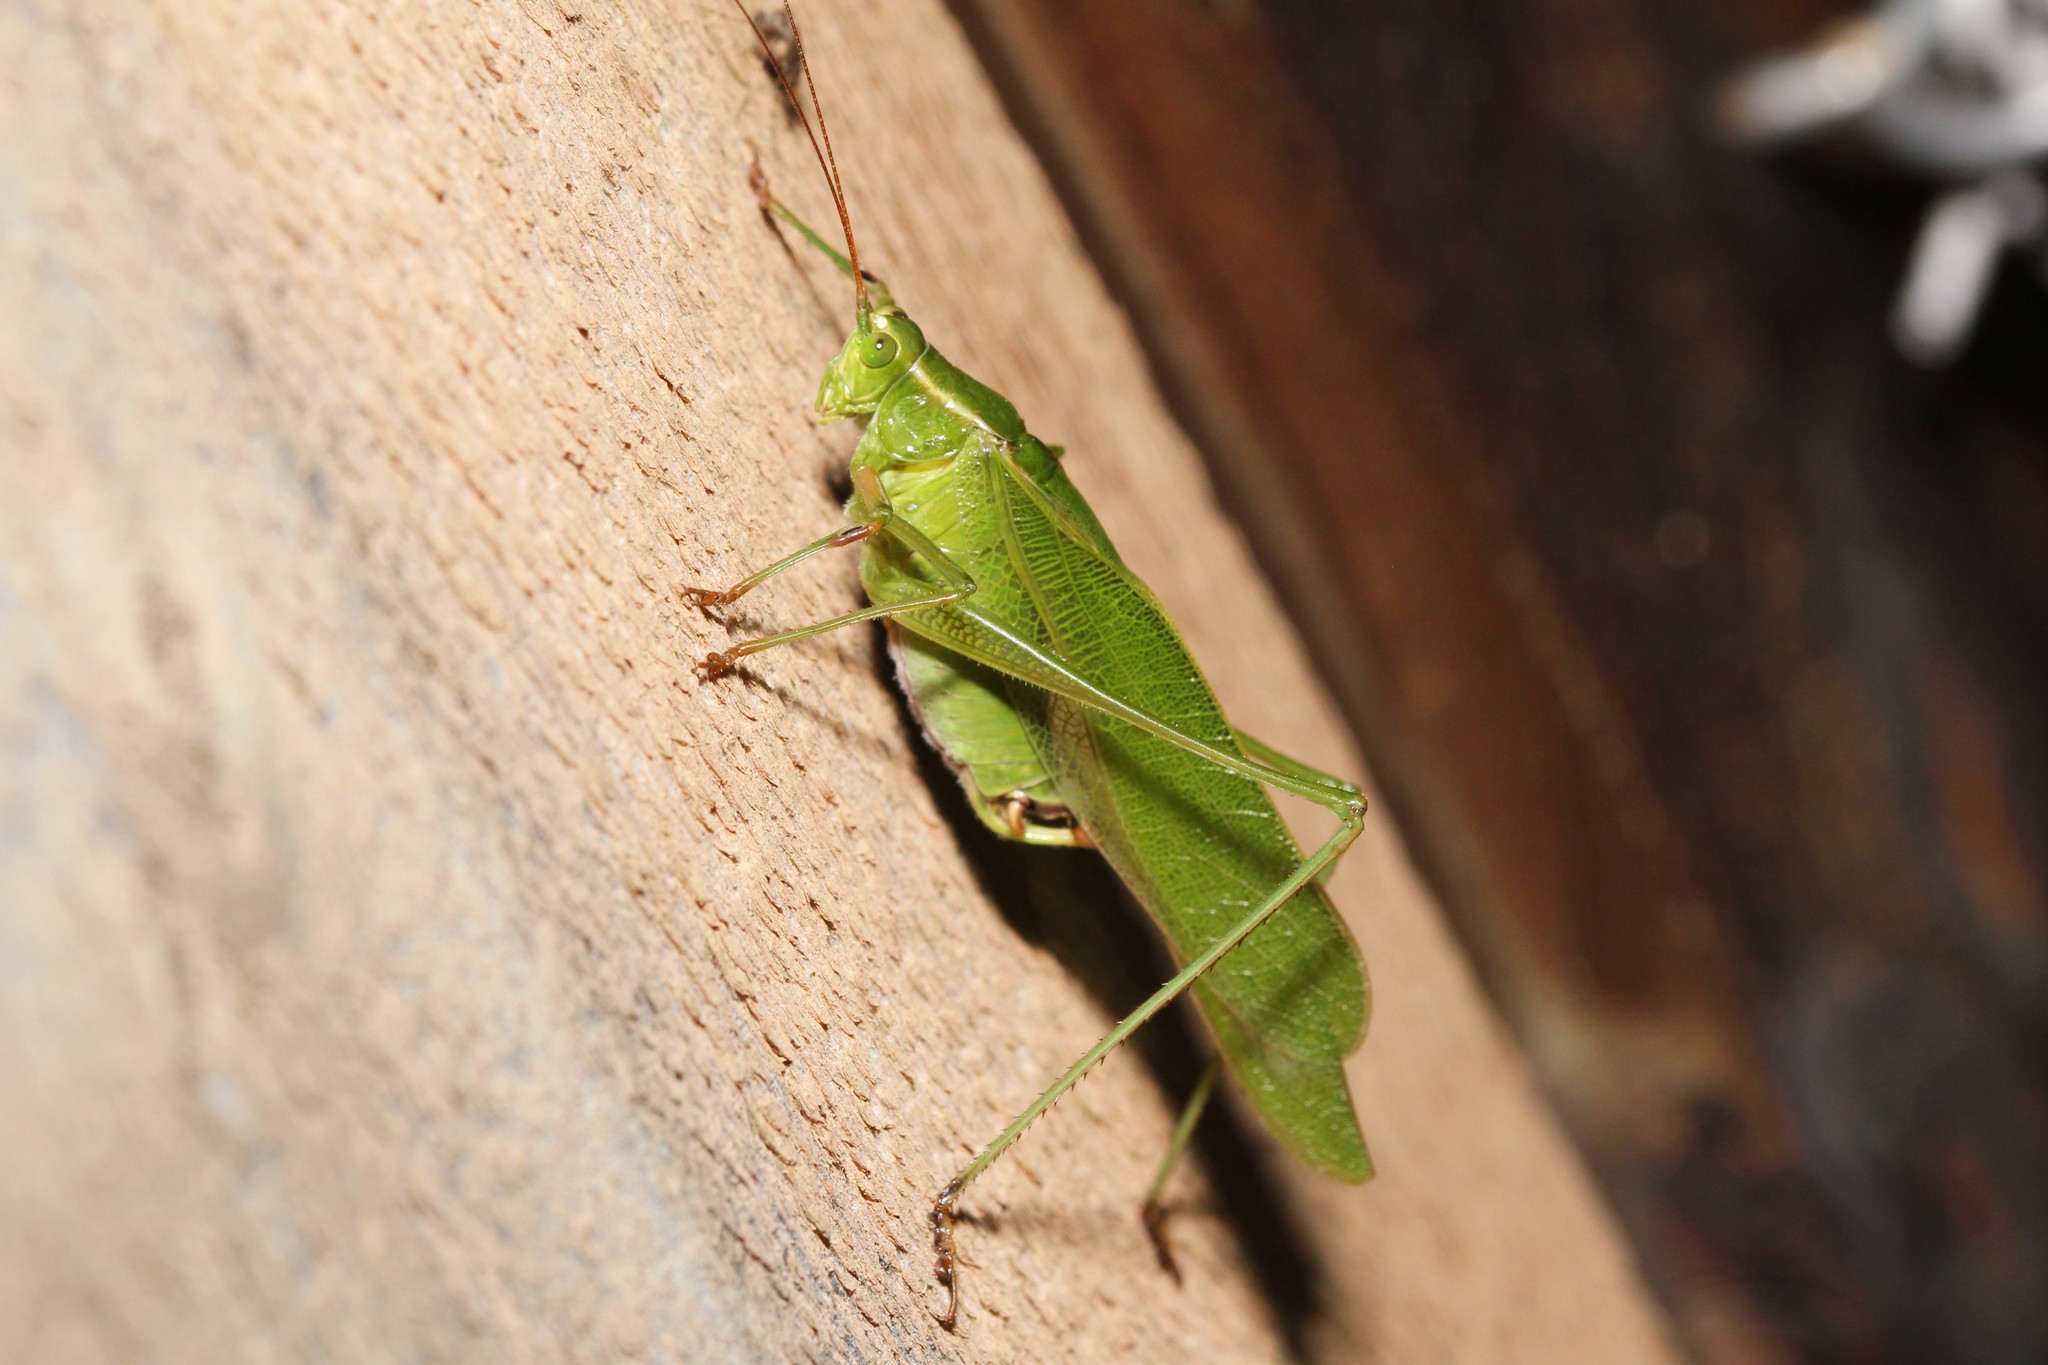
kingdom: Animalia
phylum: Arthropoda
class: Insecta
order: Orthoptera
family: Tettigoniidae
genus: Scudderia
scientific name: Scudderia furcata
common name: Fork-tailed bush katydid
